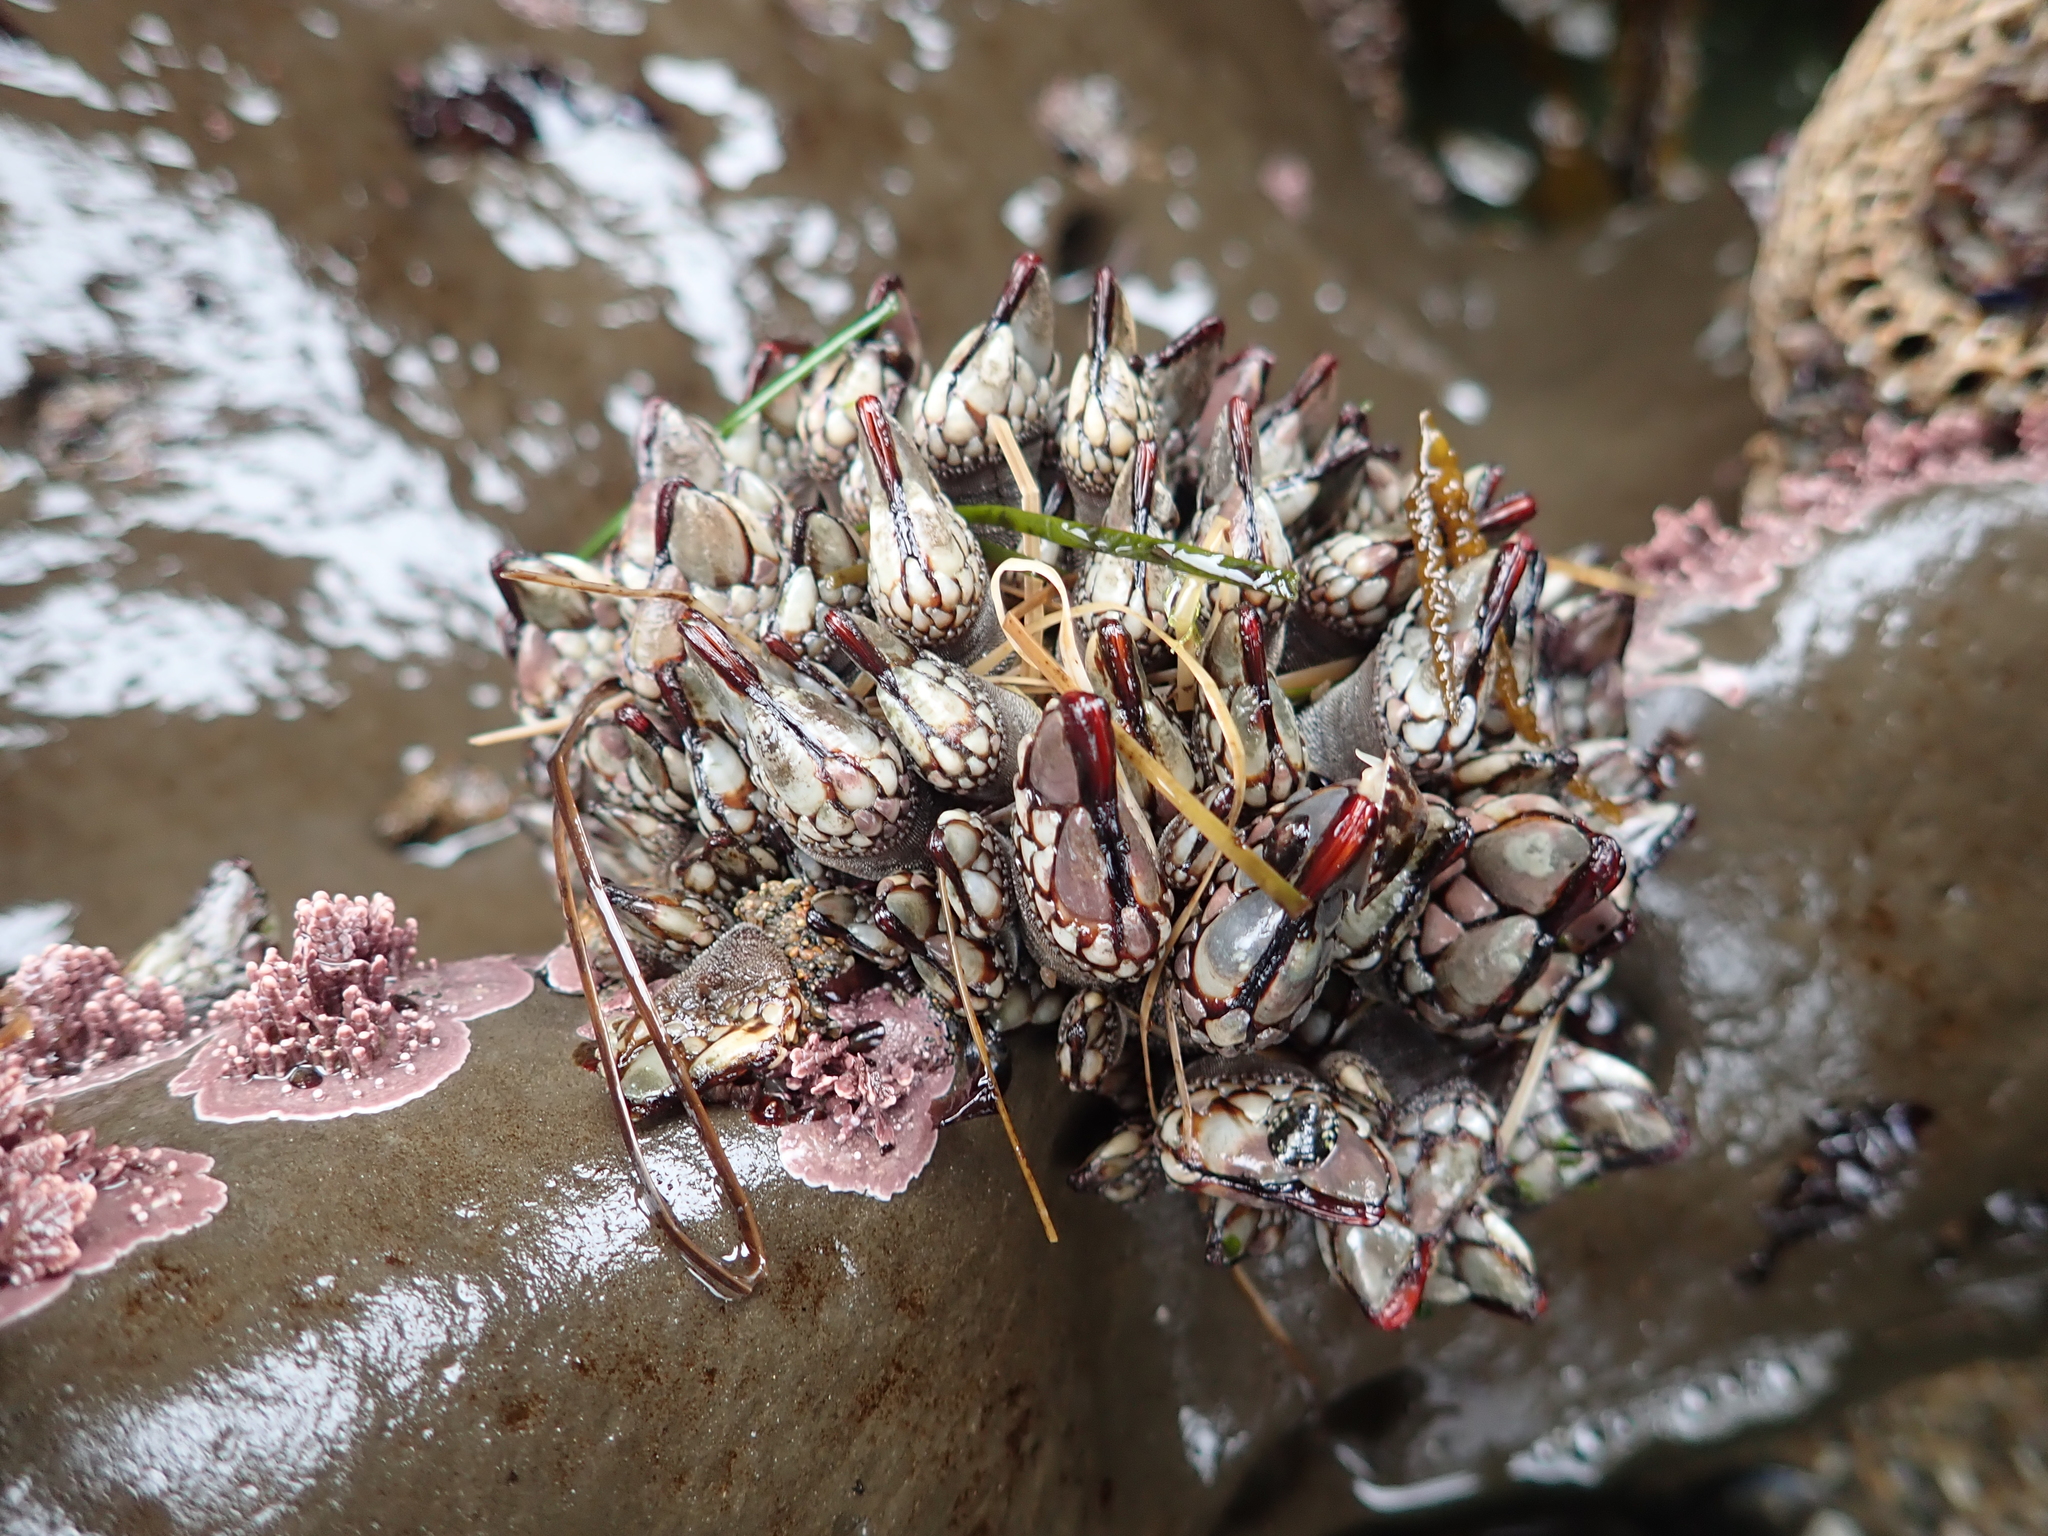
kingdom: Animalia
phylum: Arthropoda
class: Maxillopoda
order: Pedunculata
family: Pollicipedidae
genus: Pollicipes
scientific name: Pollicipes polymerus
